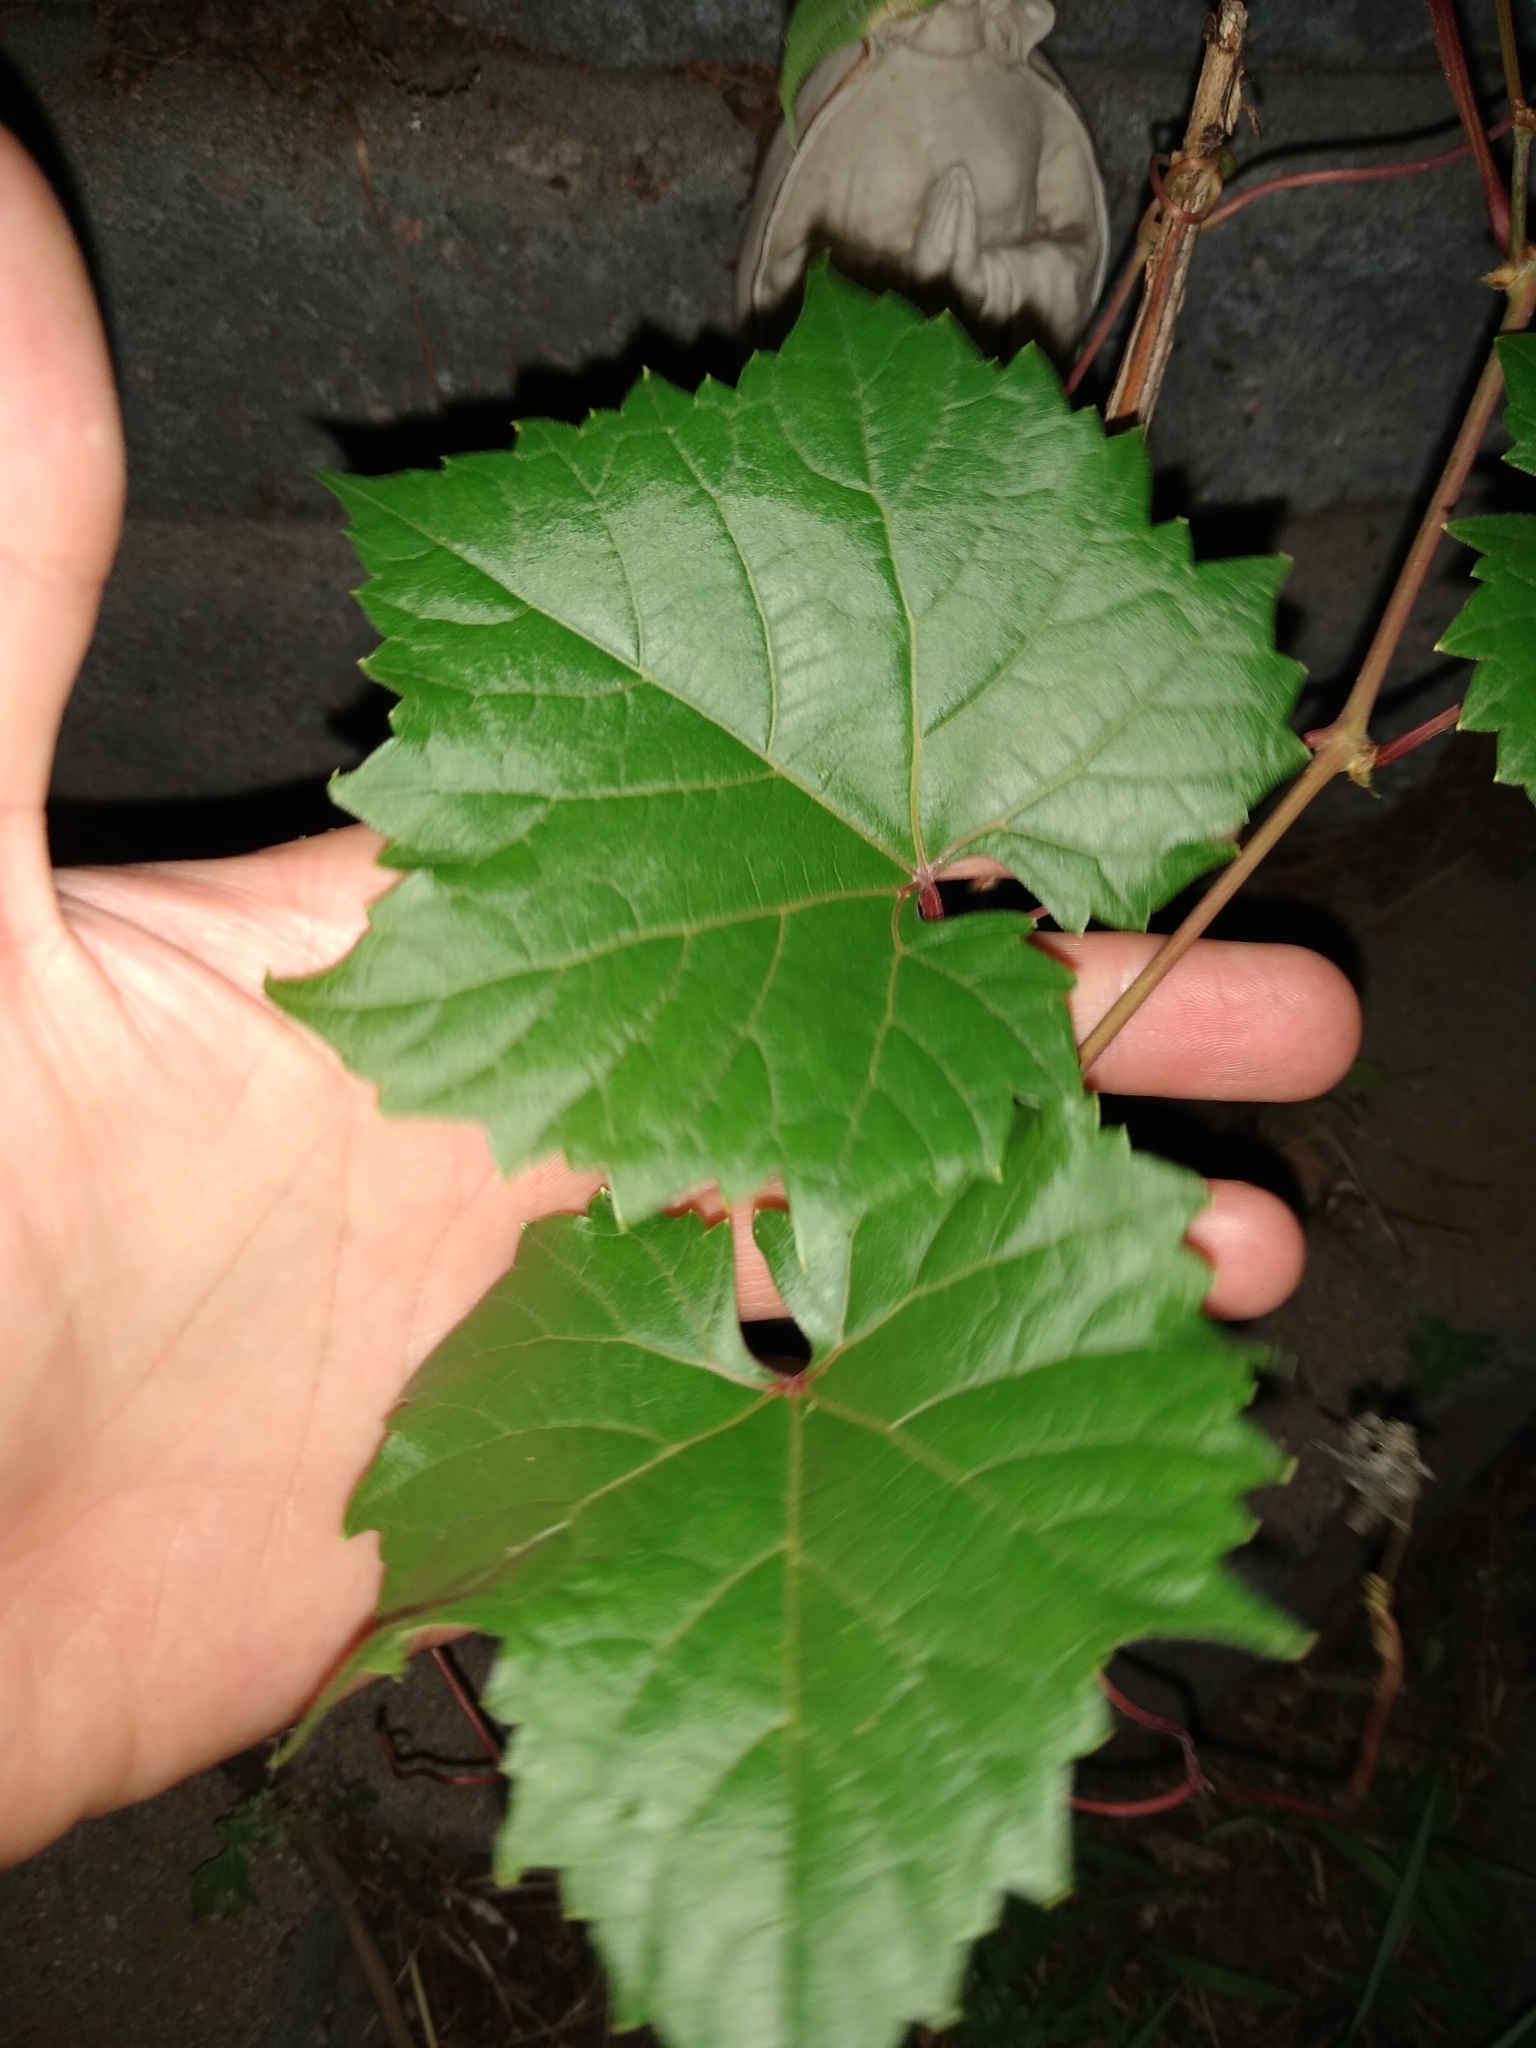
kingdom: Plantae
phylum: Tracheophyta
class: Magnoliopsida
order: Vitales
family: Vitaceae
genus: Vitis
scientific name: Vitis riparia
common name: Frost grape
